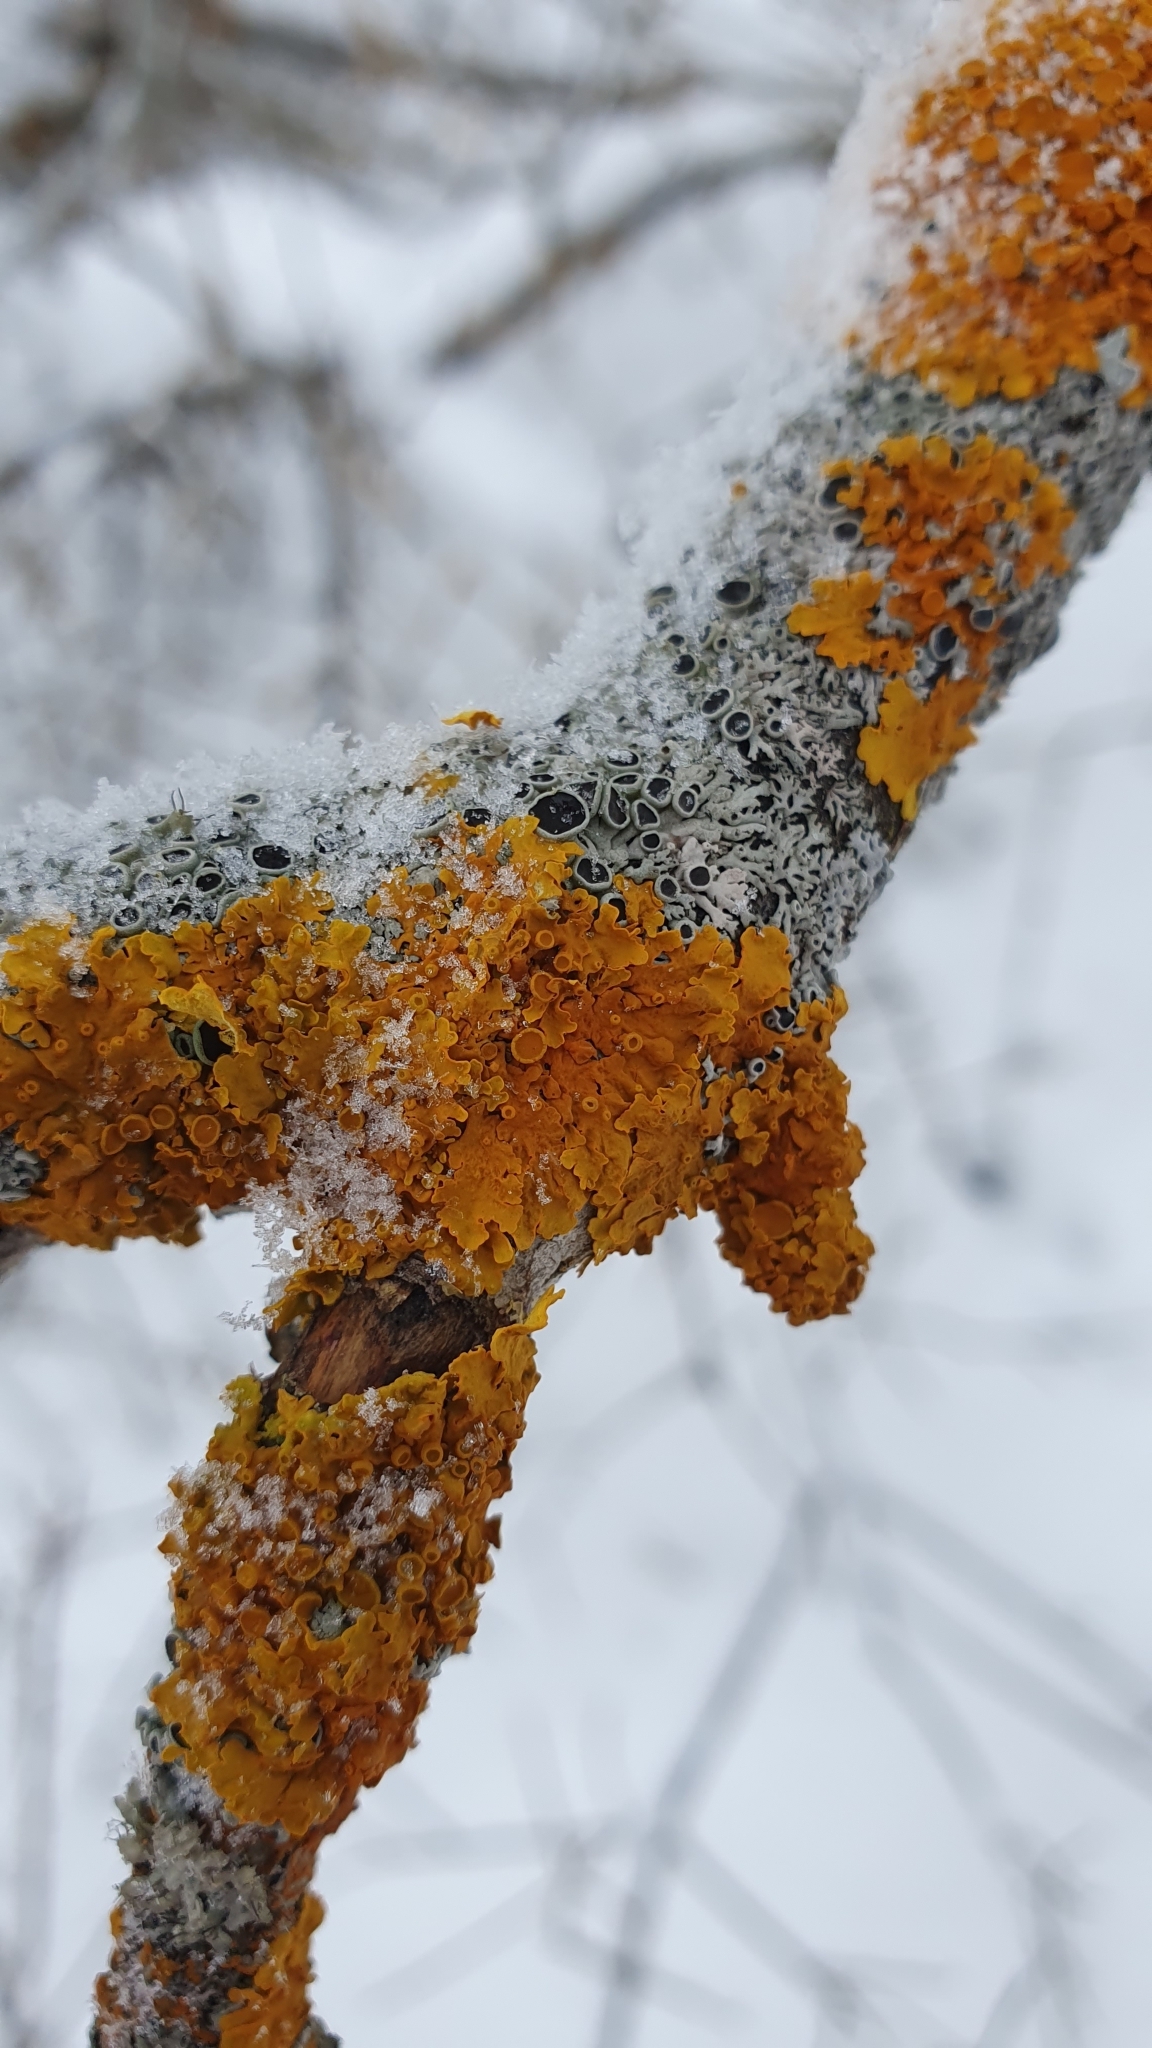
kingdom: Fungi
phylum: Ascomycota
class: Lecanoromycetes
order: Teloschistales
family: Teloschistaceae
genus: Xanthoria
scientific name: Xanthoria parietina
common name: Common orange lichen
